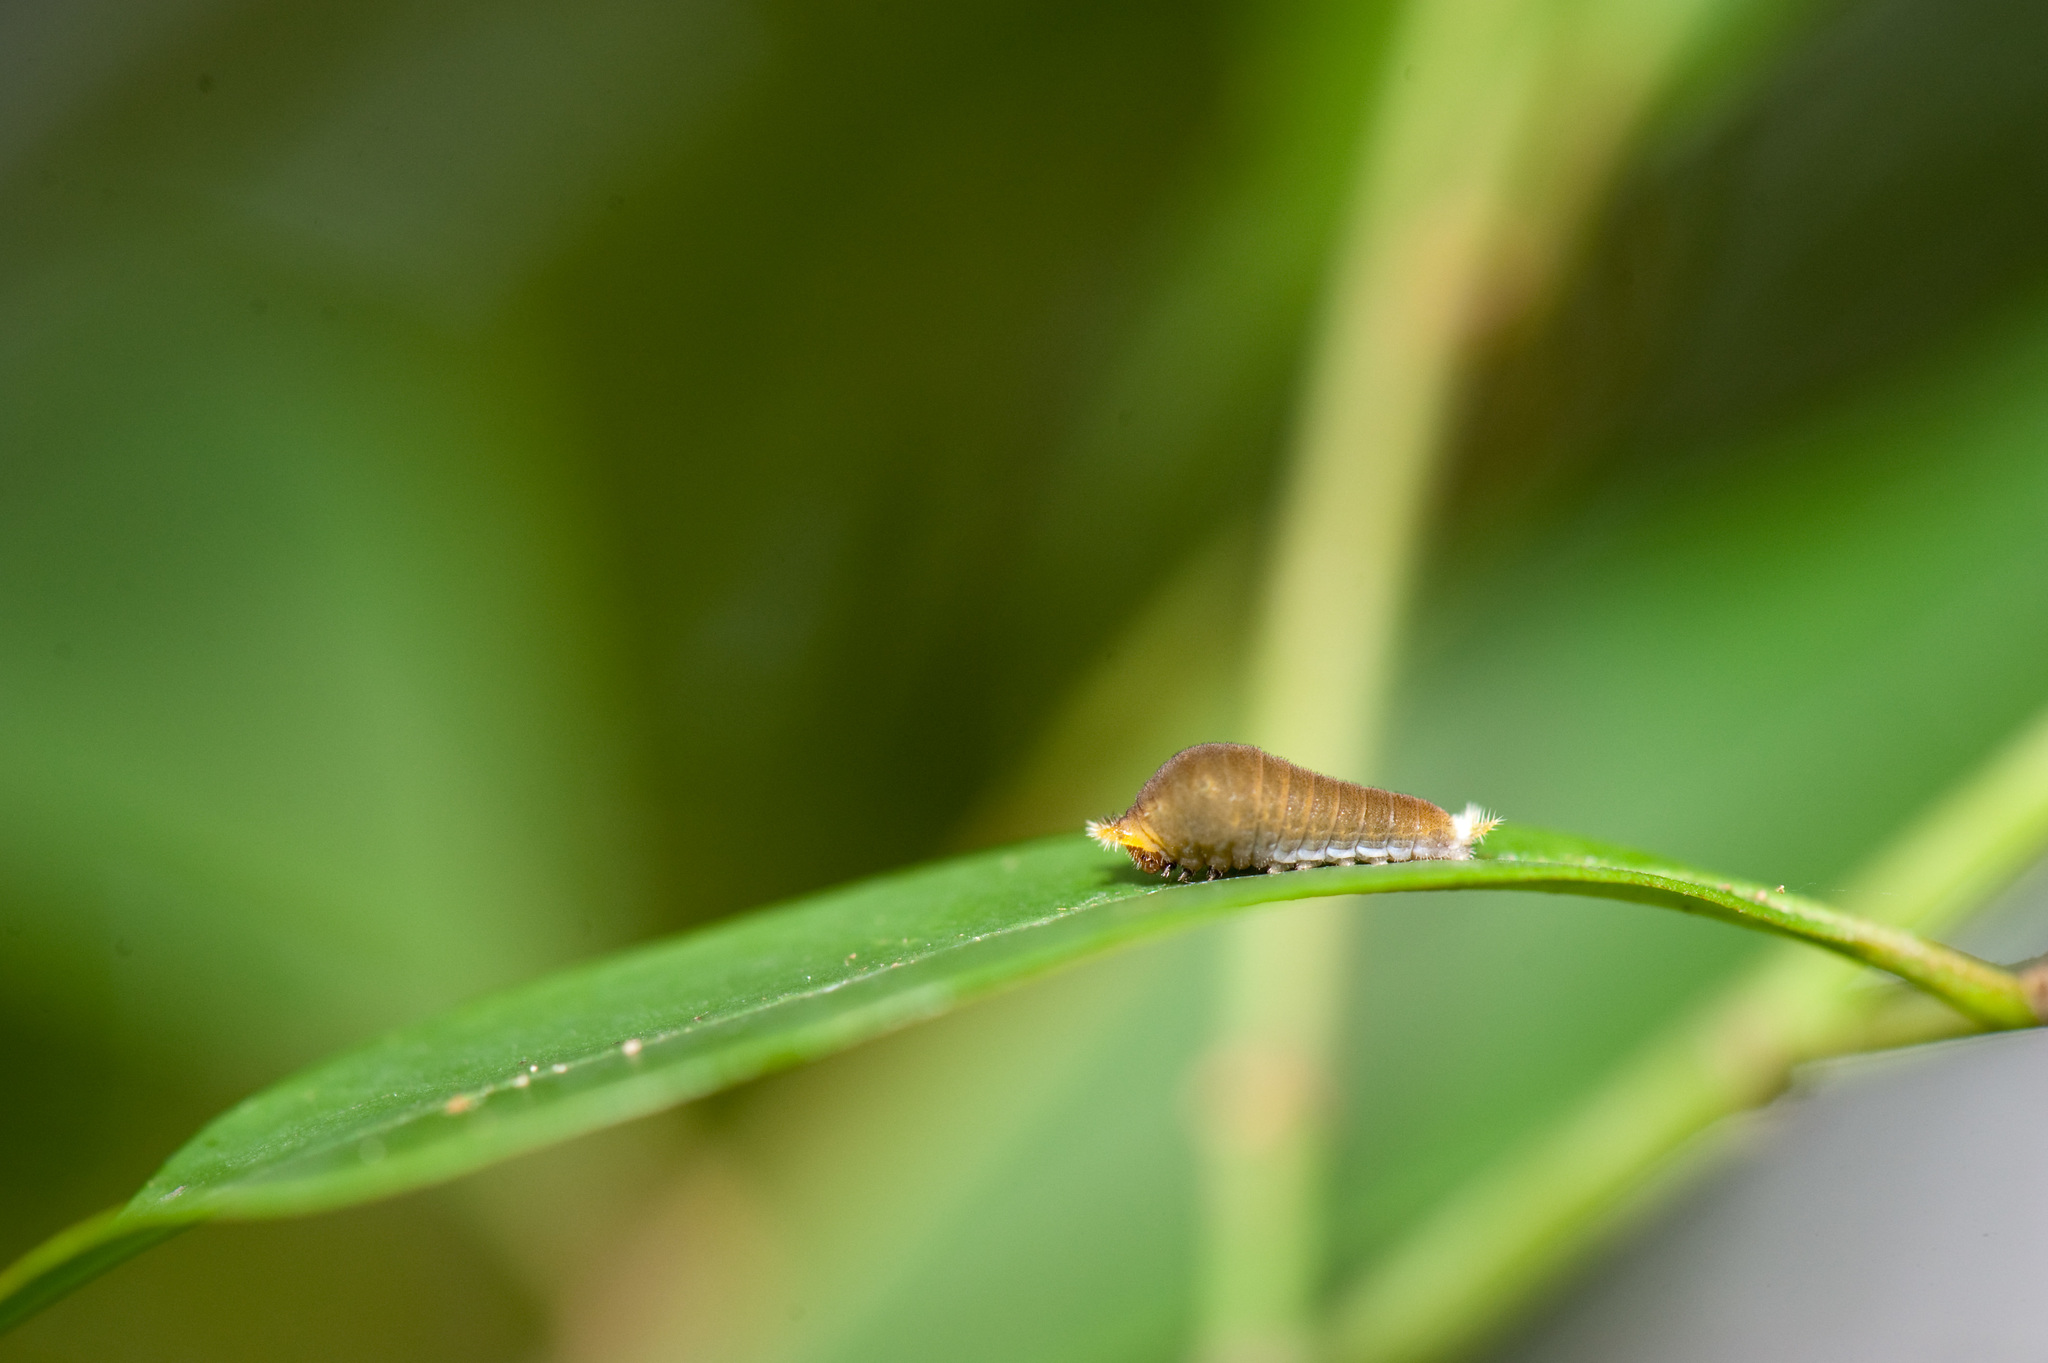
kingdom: Animalia
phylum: Arthropoda
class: Insecta
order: Lepidoptera
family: Papilionidae
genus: Graphium
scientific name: Graphium doson
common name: Common jay
